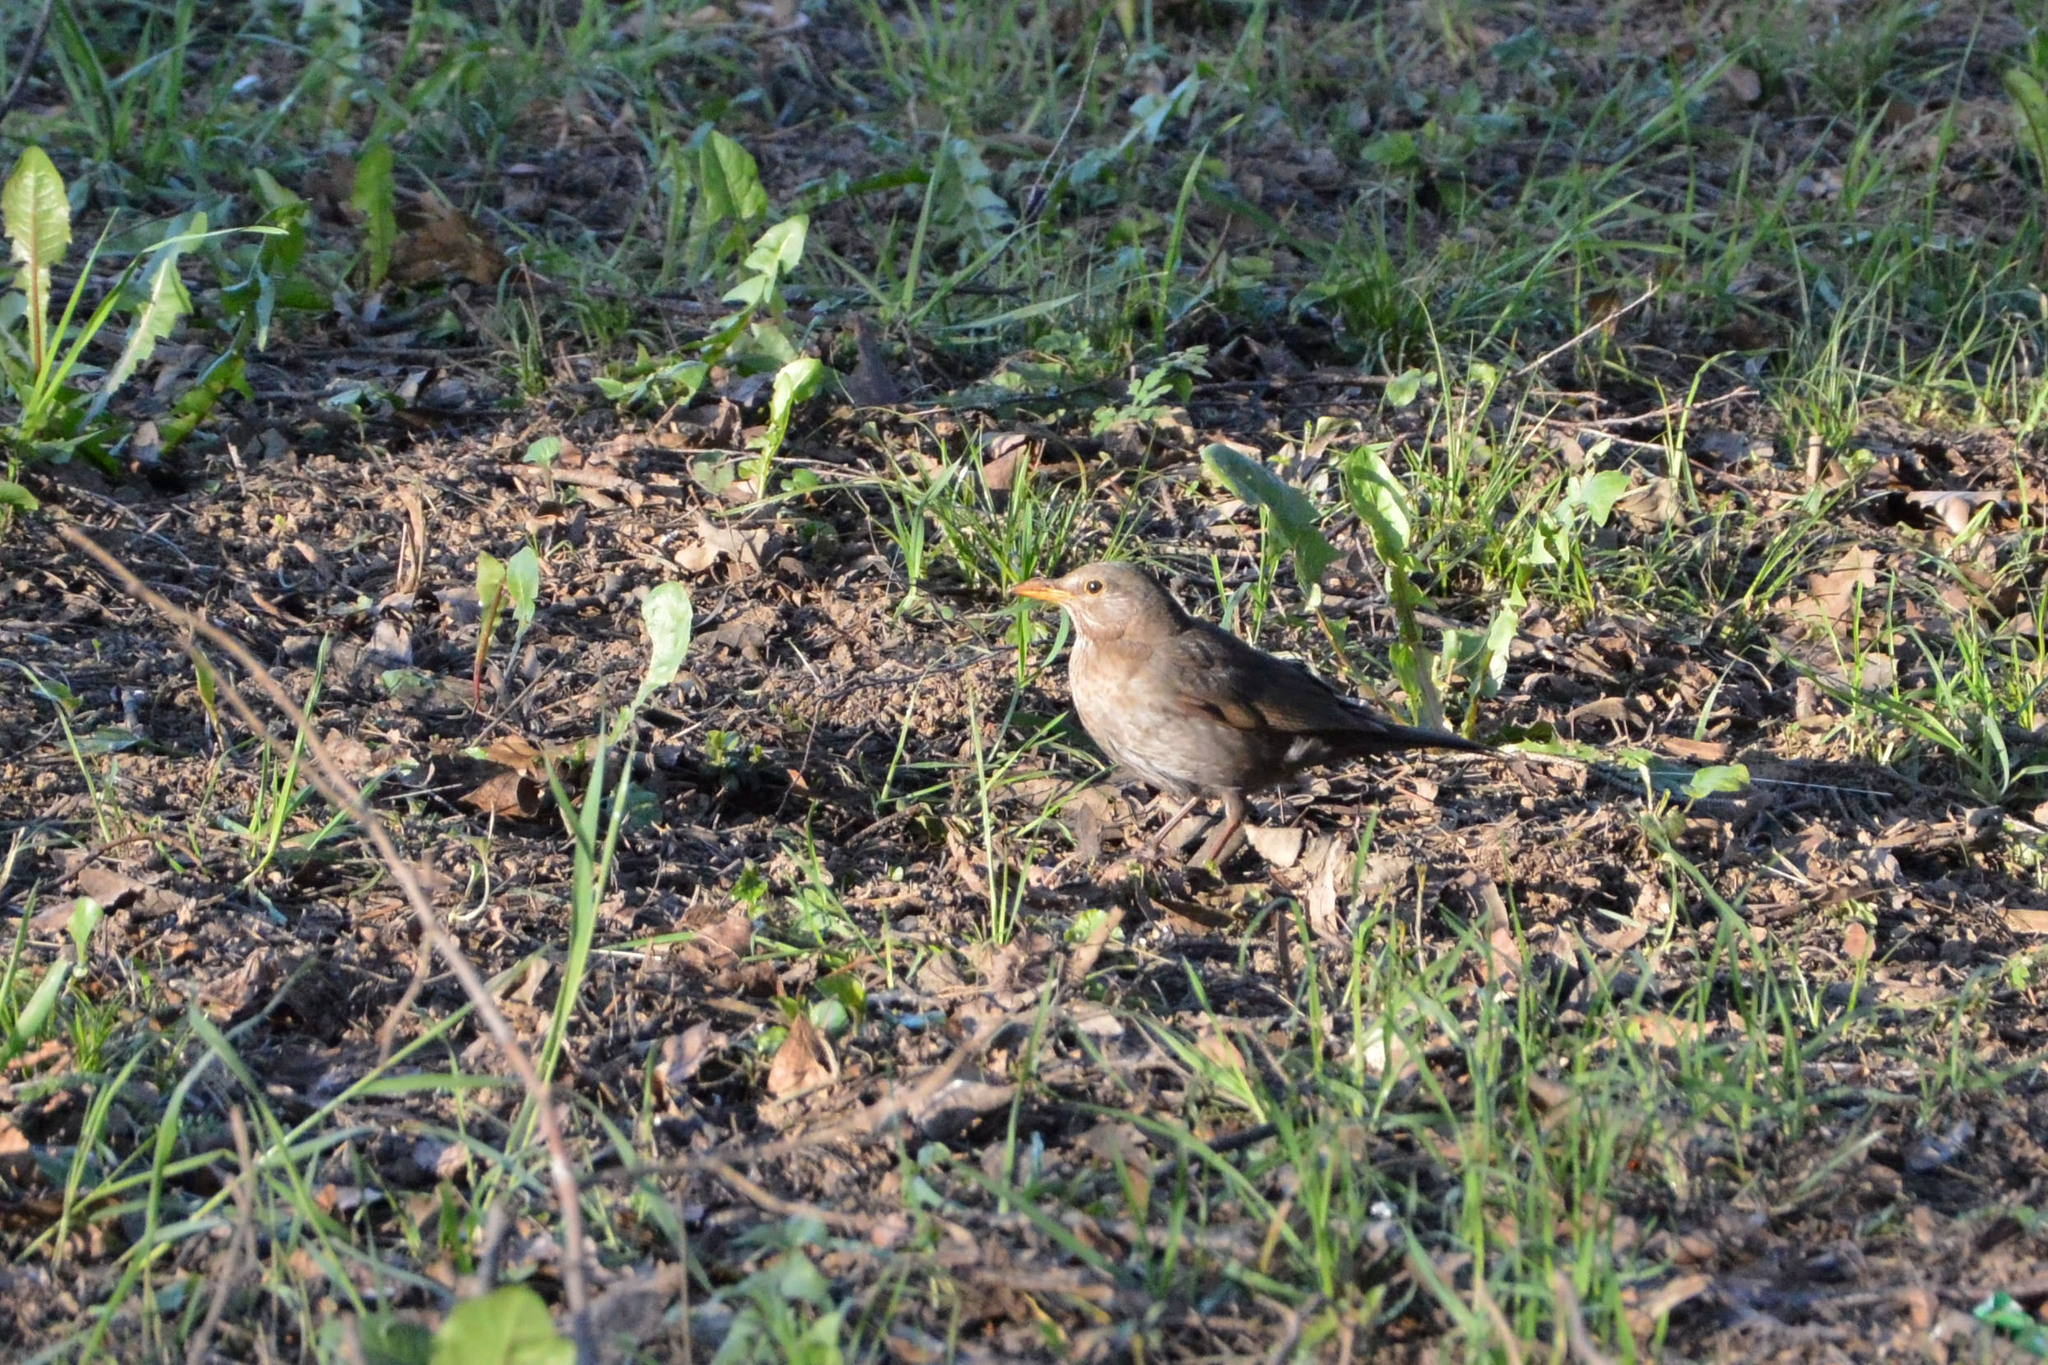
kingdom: Animalia
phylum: Chordata
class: Aves
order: Passeriformes
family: Turdidae
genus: Turdus
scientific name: Turdus merula
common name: Common blackbird
